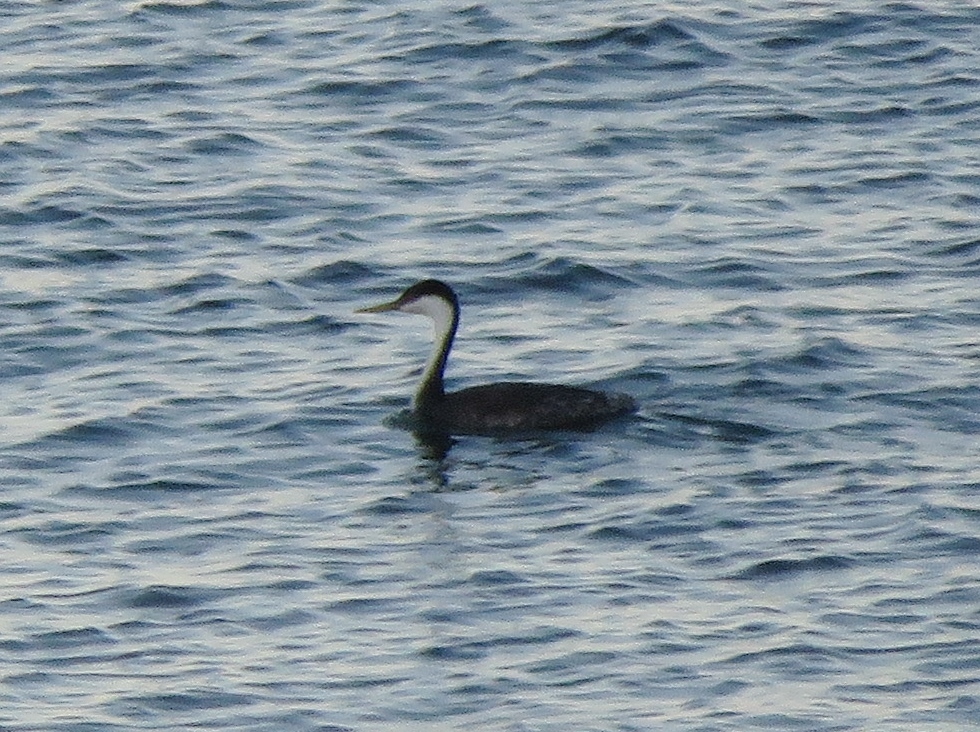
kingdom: Animalia
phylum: Chordata
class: Aves
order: Podicipediformes
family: Podicipedidae
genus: Aechmophorus
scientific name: Aechmophorus occidentalis
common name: Western grebe
